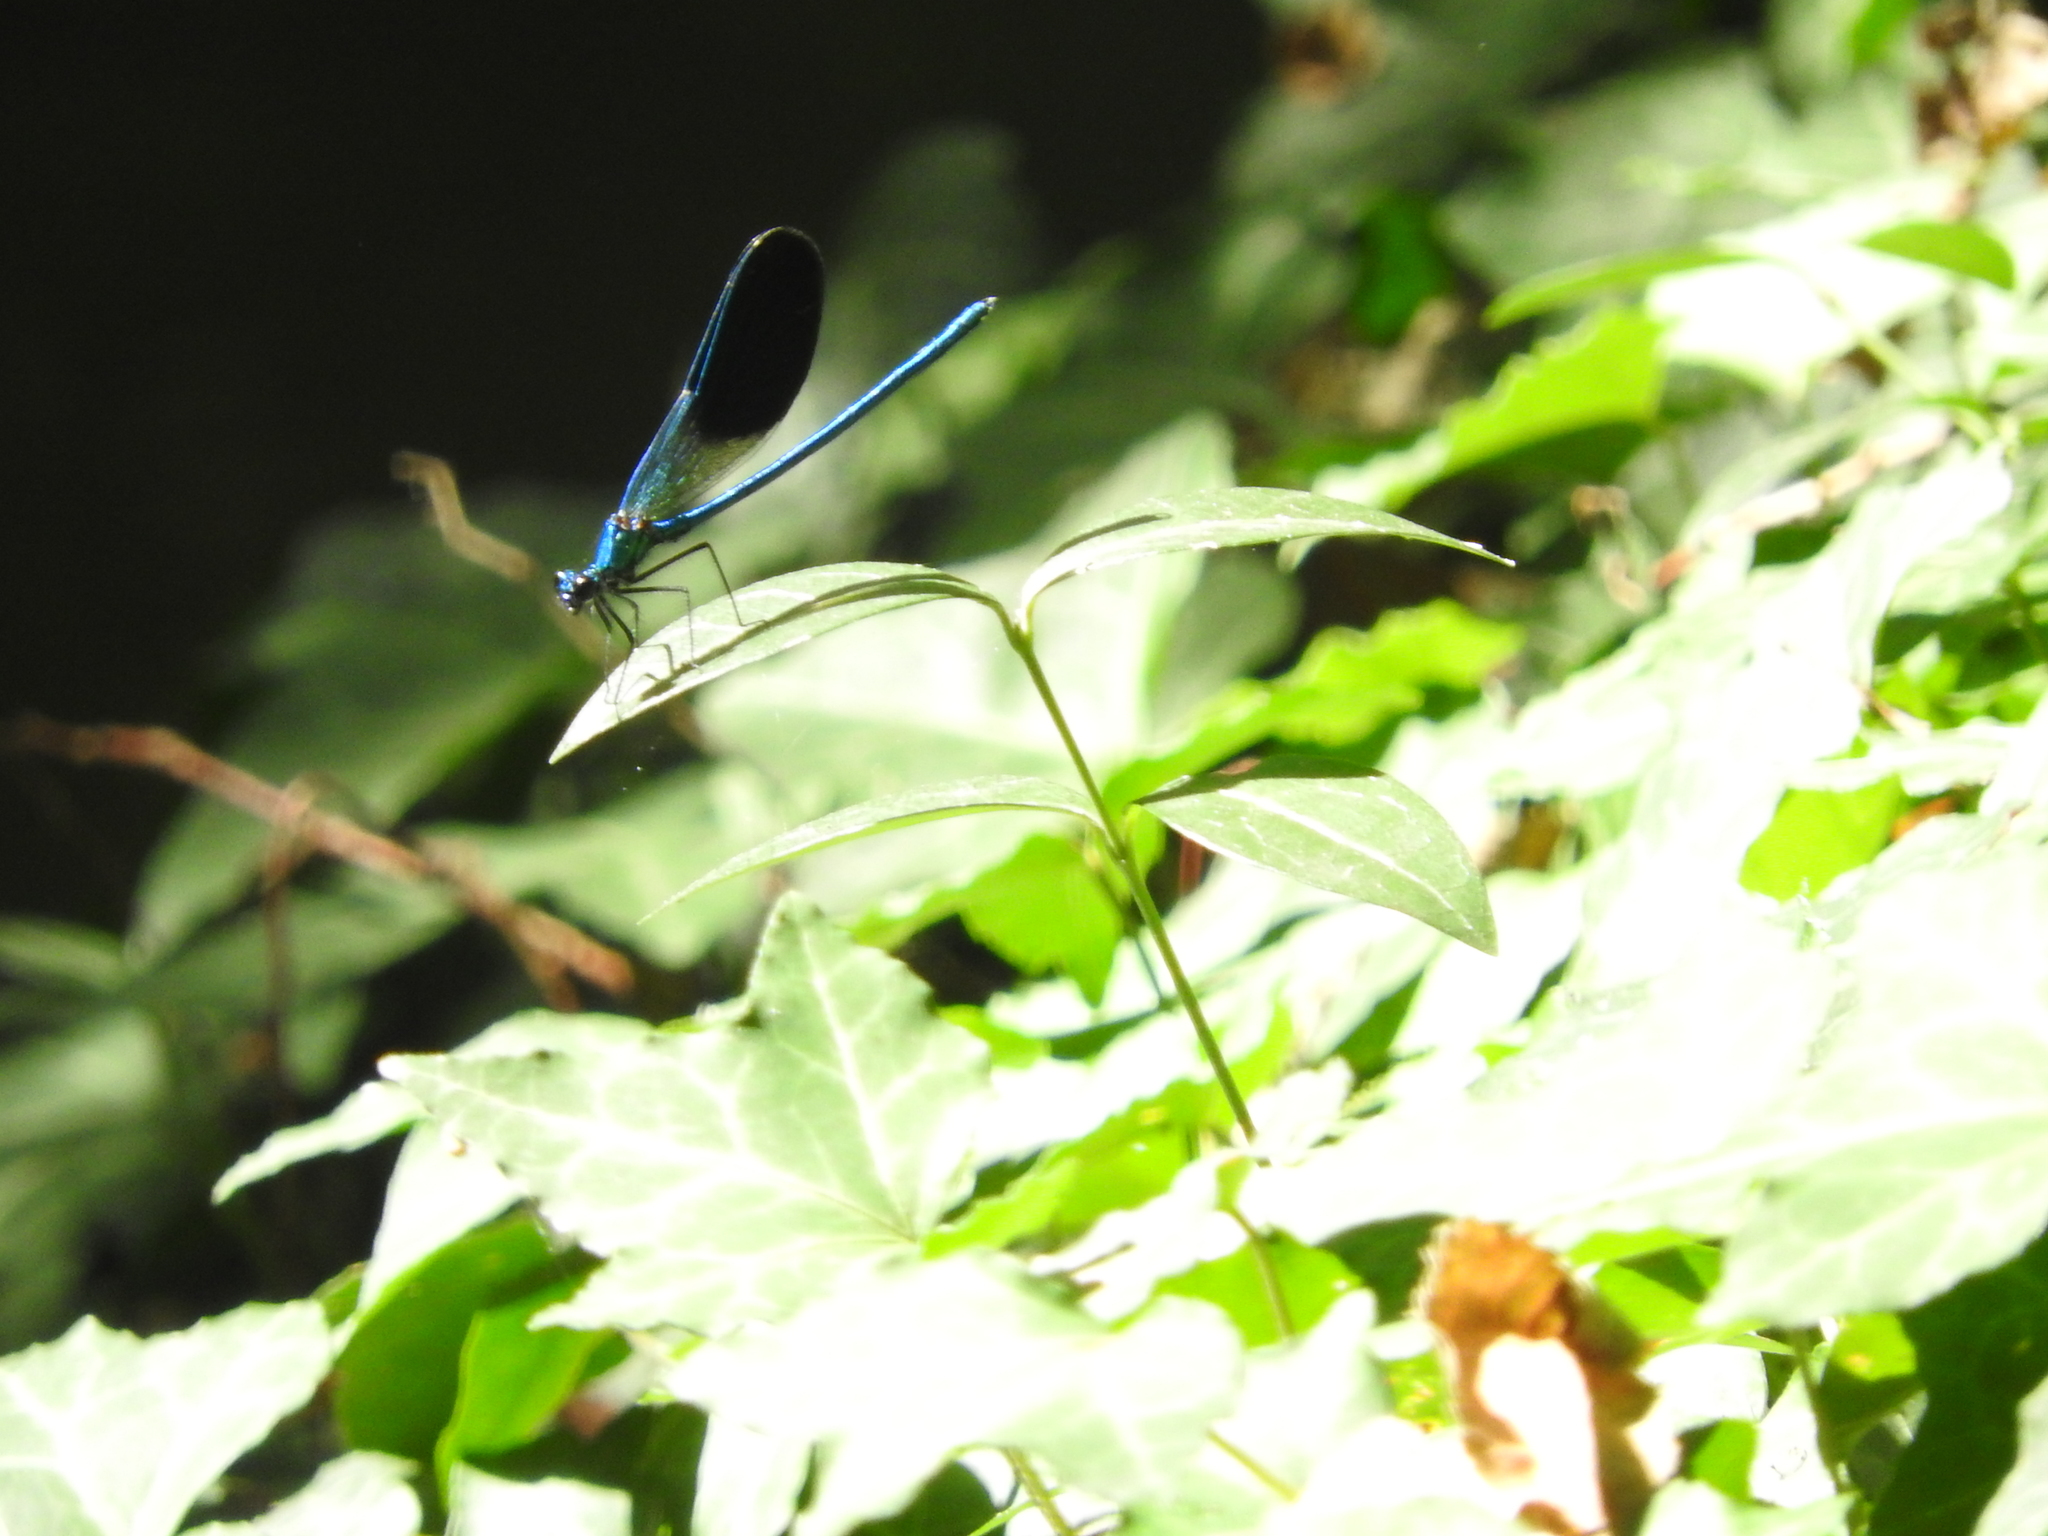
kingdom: Animalia
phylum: Arthropoda
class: Insecta
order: Odonata
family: Calopterygidae
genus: Calopteryx
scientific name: Calopteryx splendens
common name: Banded demoiselle
